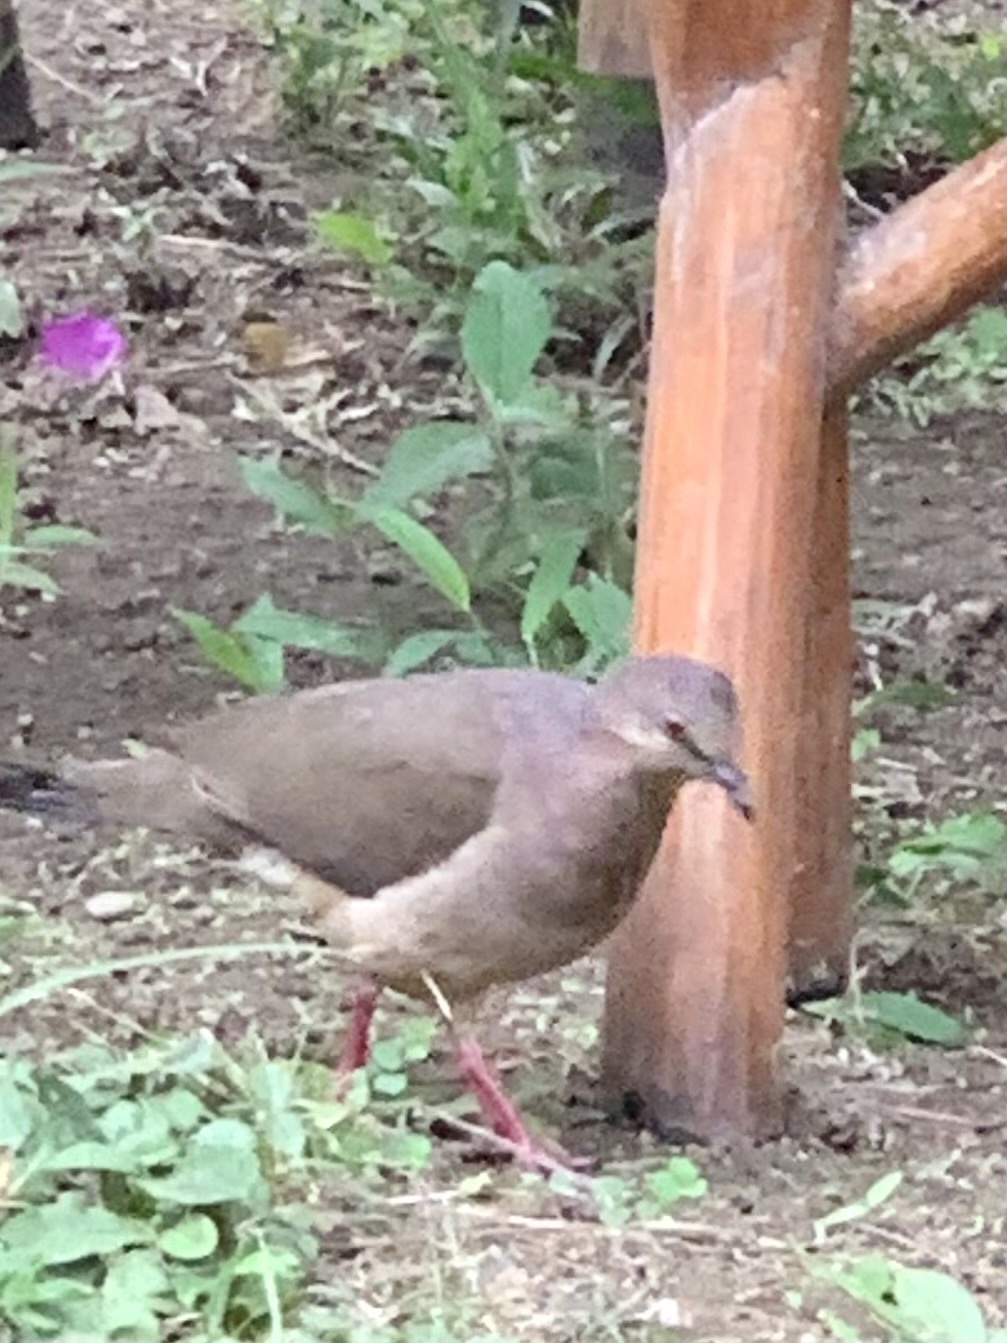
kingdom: Animalia
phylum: Chordata
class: Aves
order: Columbiformes
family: Columbidae
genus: Leptotila
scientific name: Leptotila verreauxi
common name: White-tipped dove
